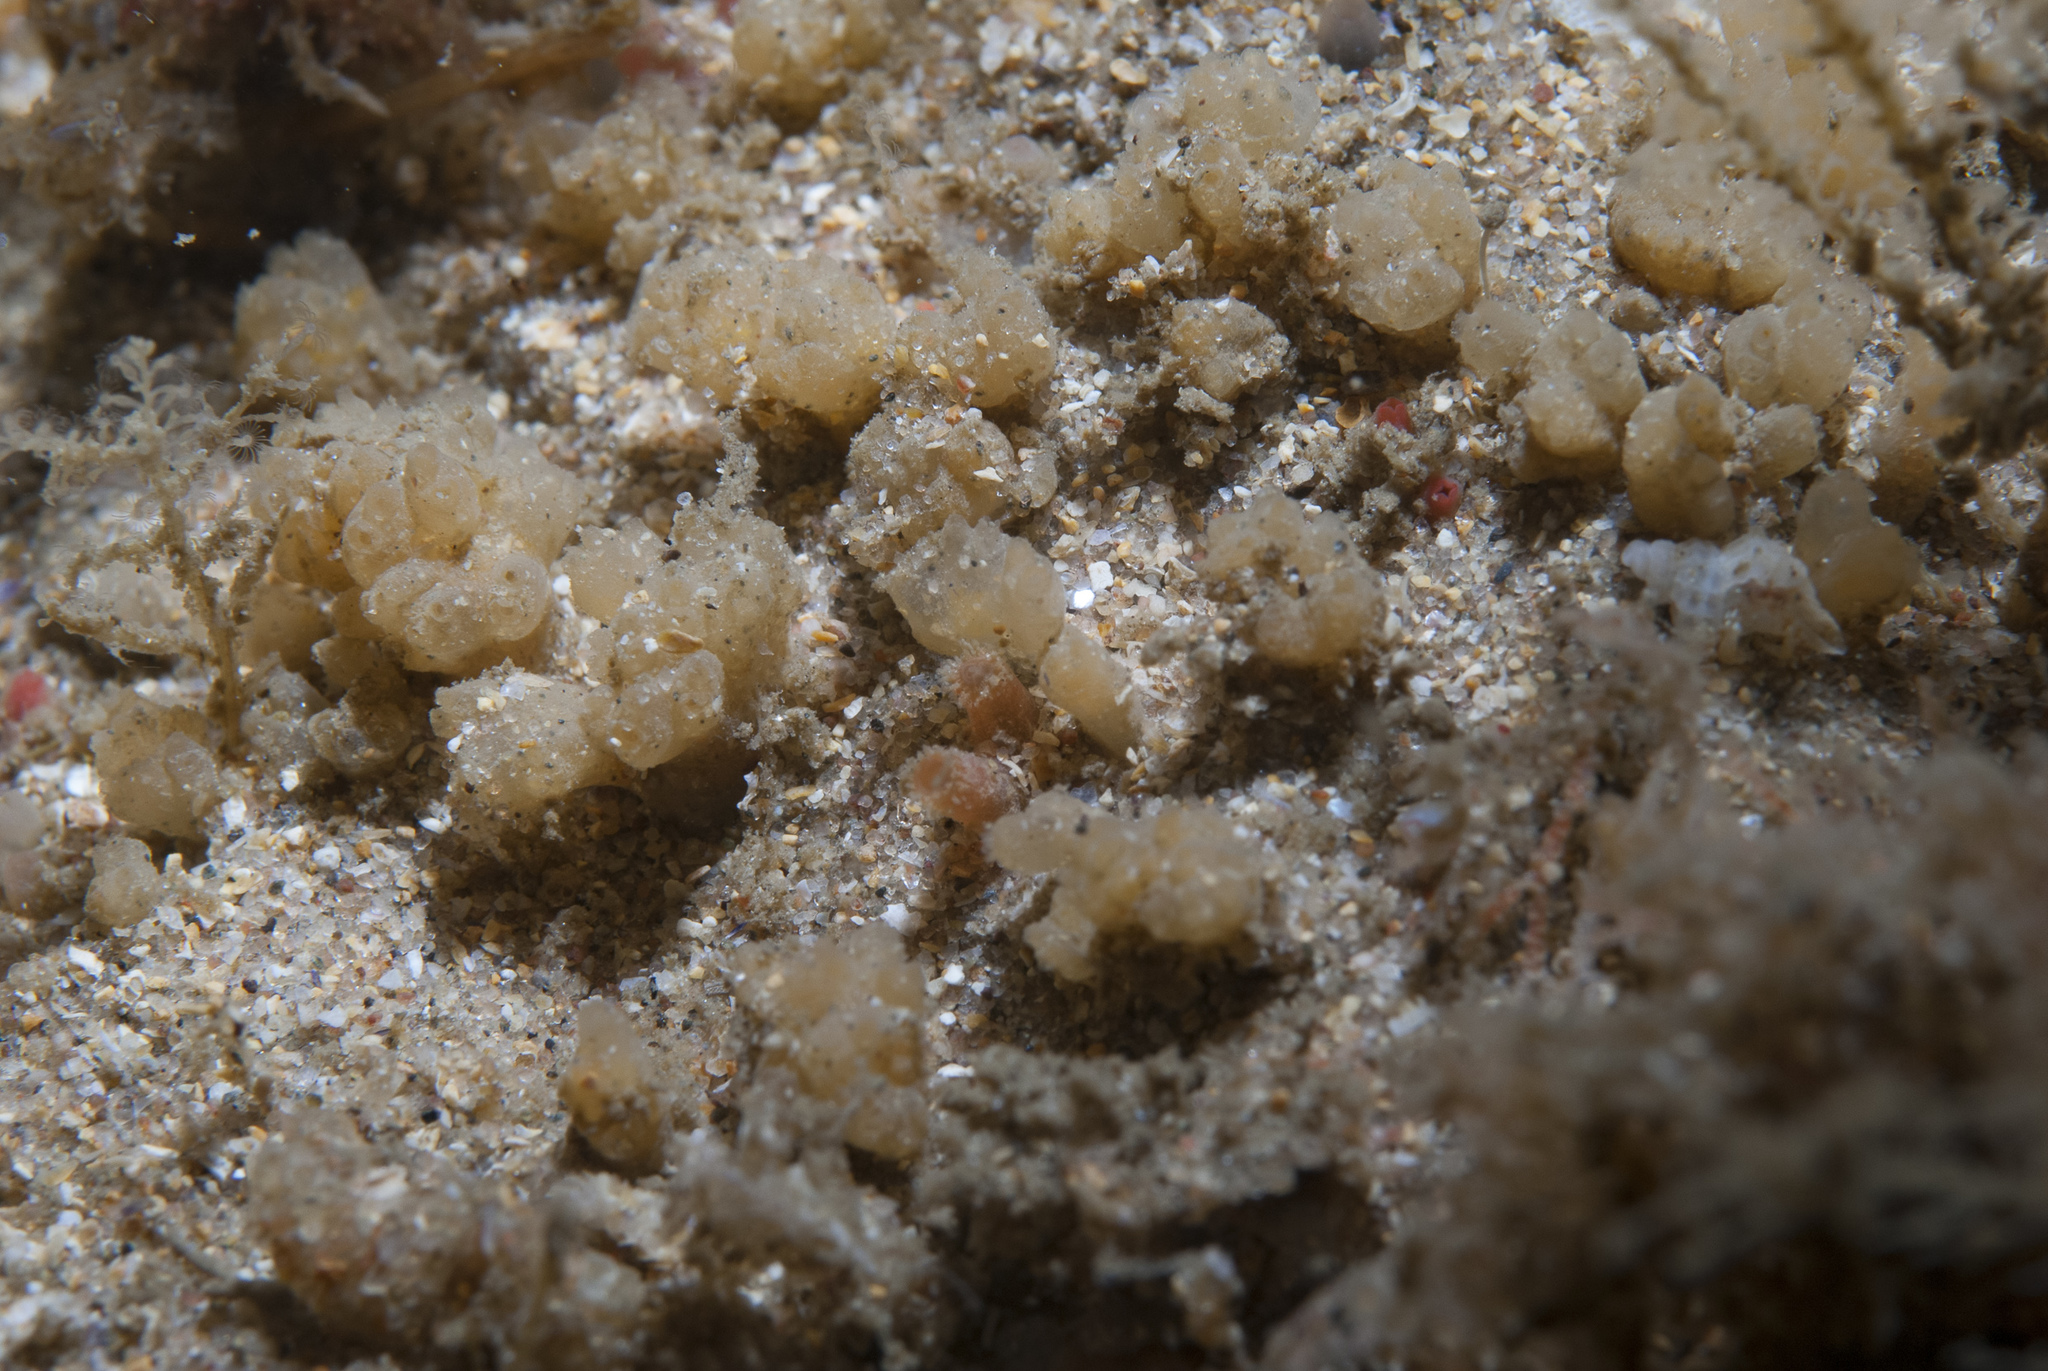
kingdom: Animalia
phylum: Chordata
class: Ascidiacea
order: Aplousobranchia
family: Polycitoridae
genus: Archidistoma
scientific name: Archidistoma aggregatum
